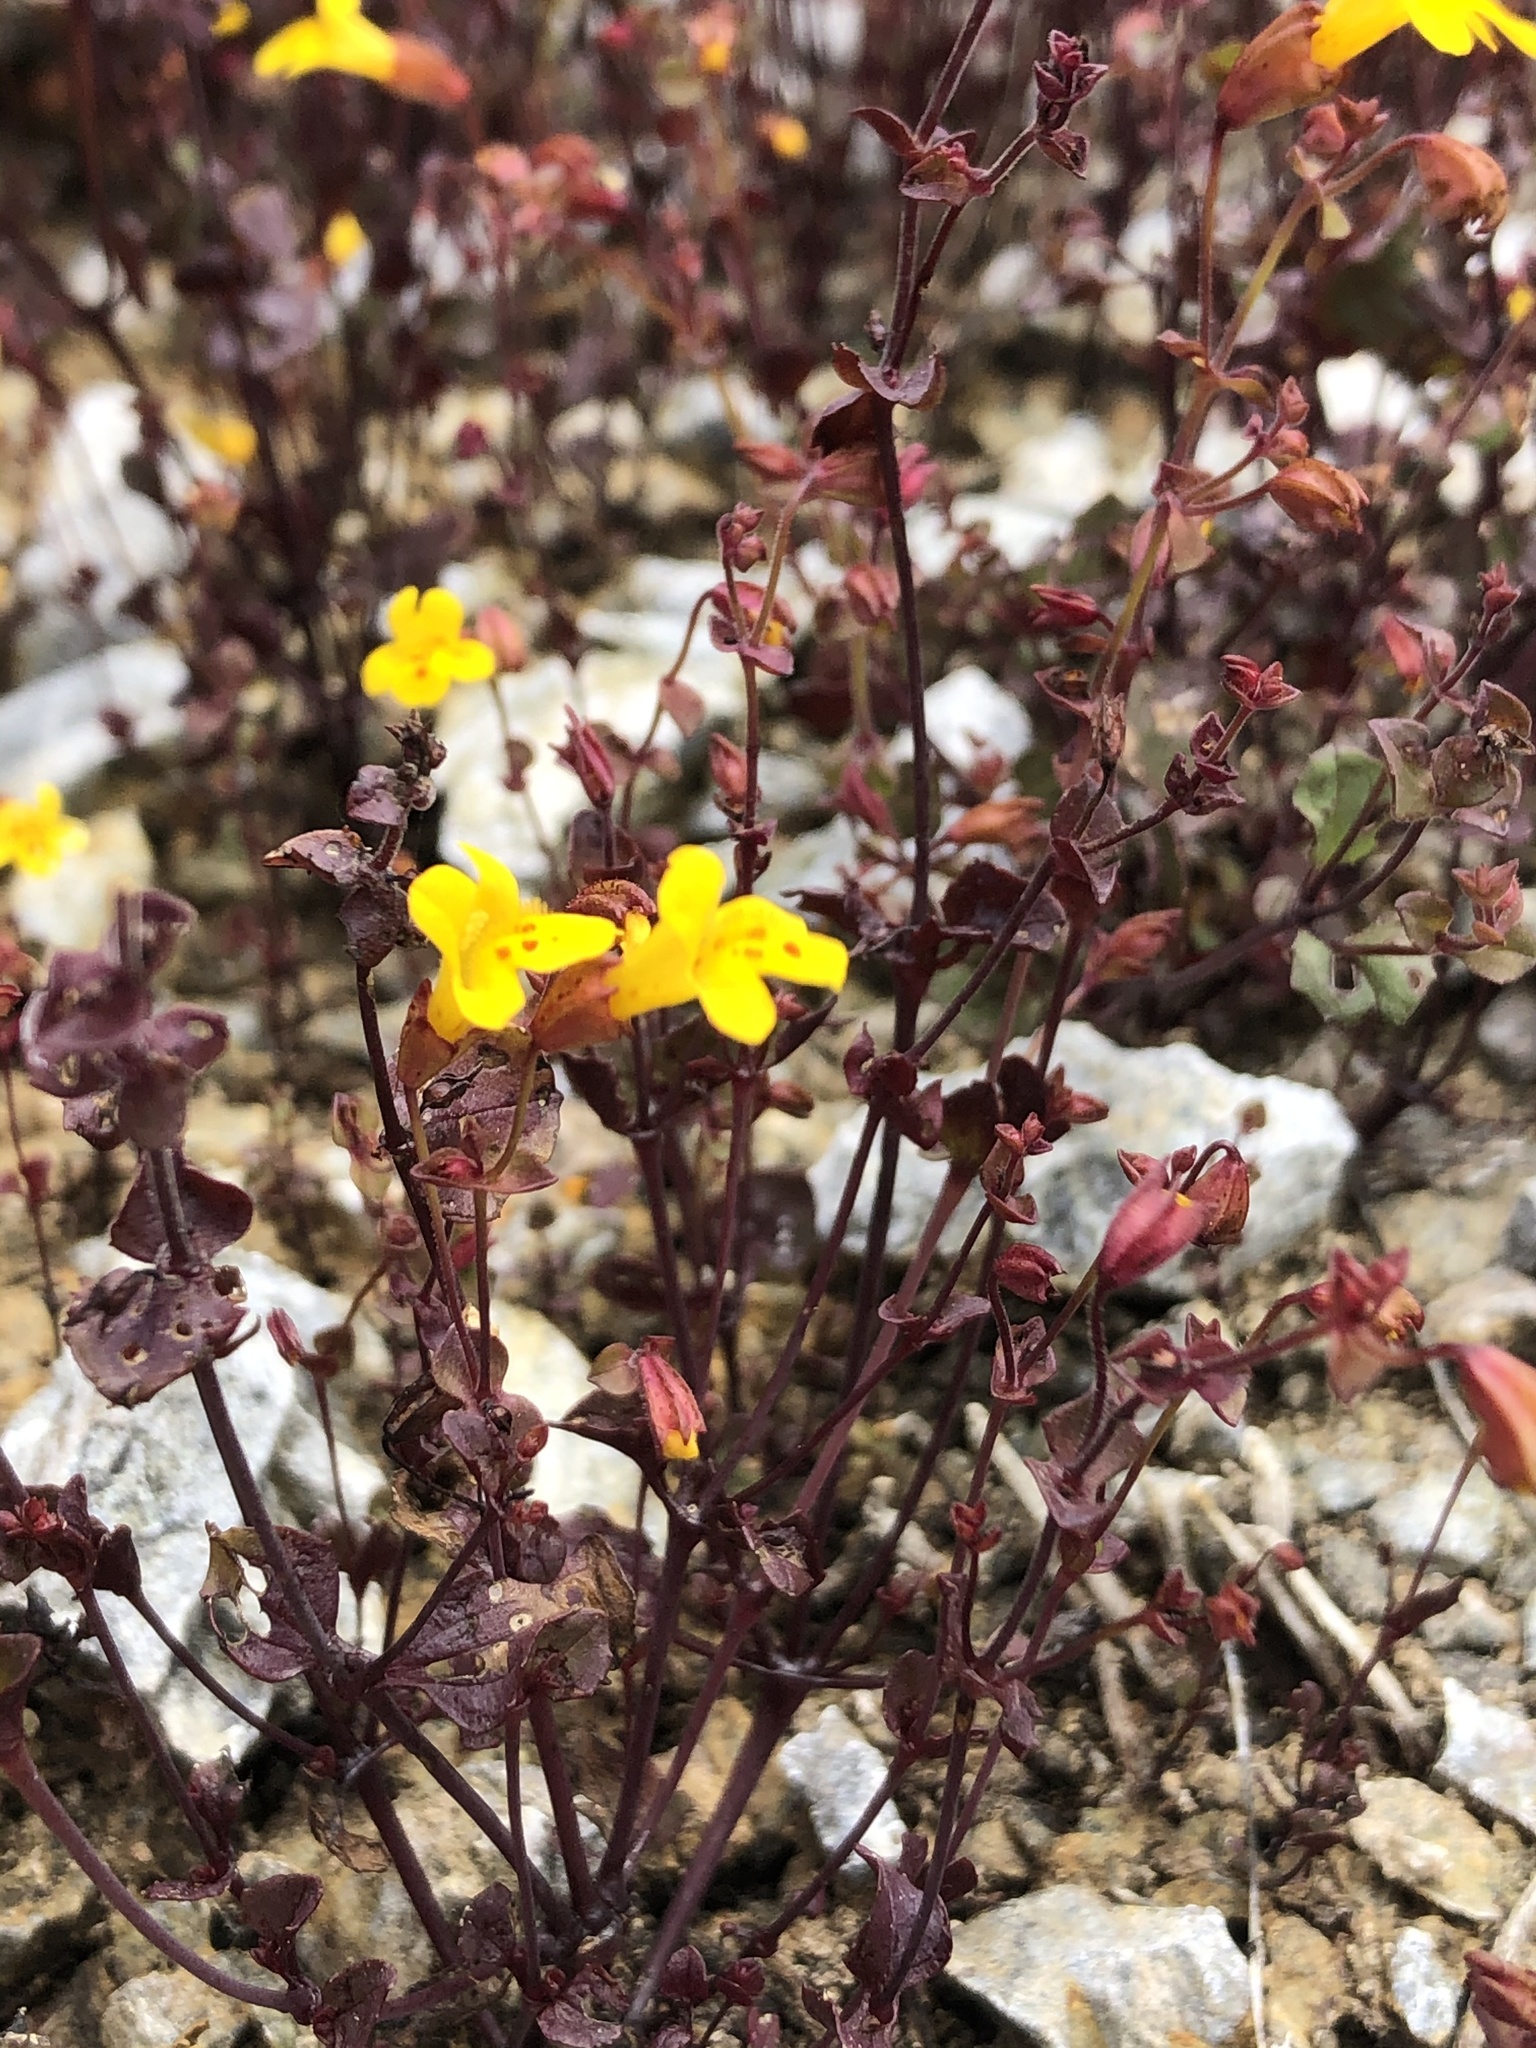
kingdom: Plantae
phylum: Tracheophyta
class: Magnoliopsida
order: Lamiales
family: Phrymaceae
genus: Erythranthe
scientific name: Erythranthe serpentinicola
